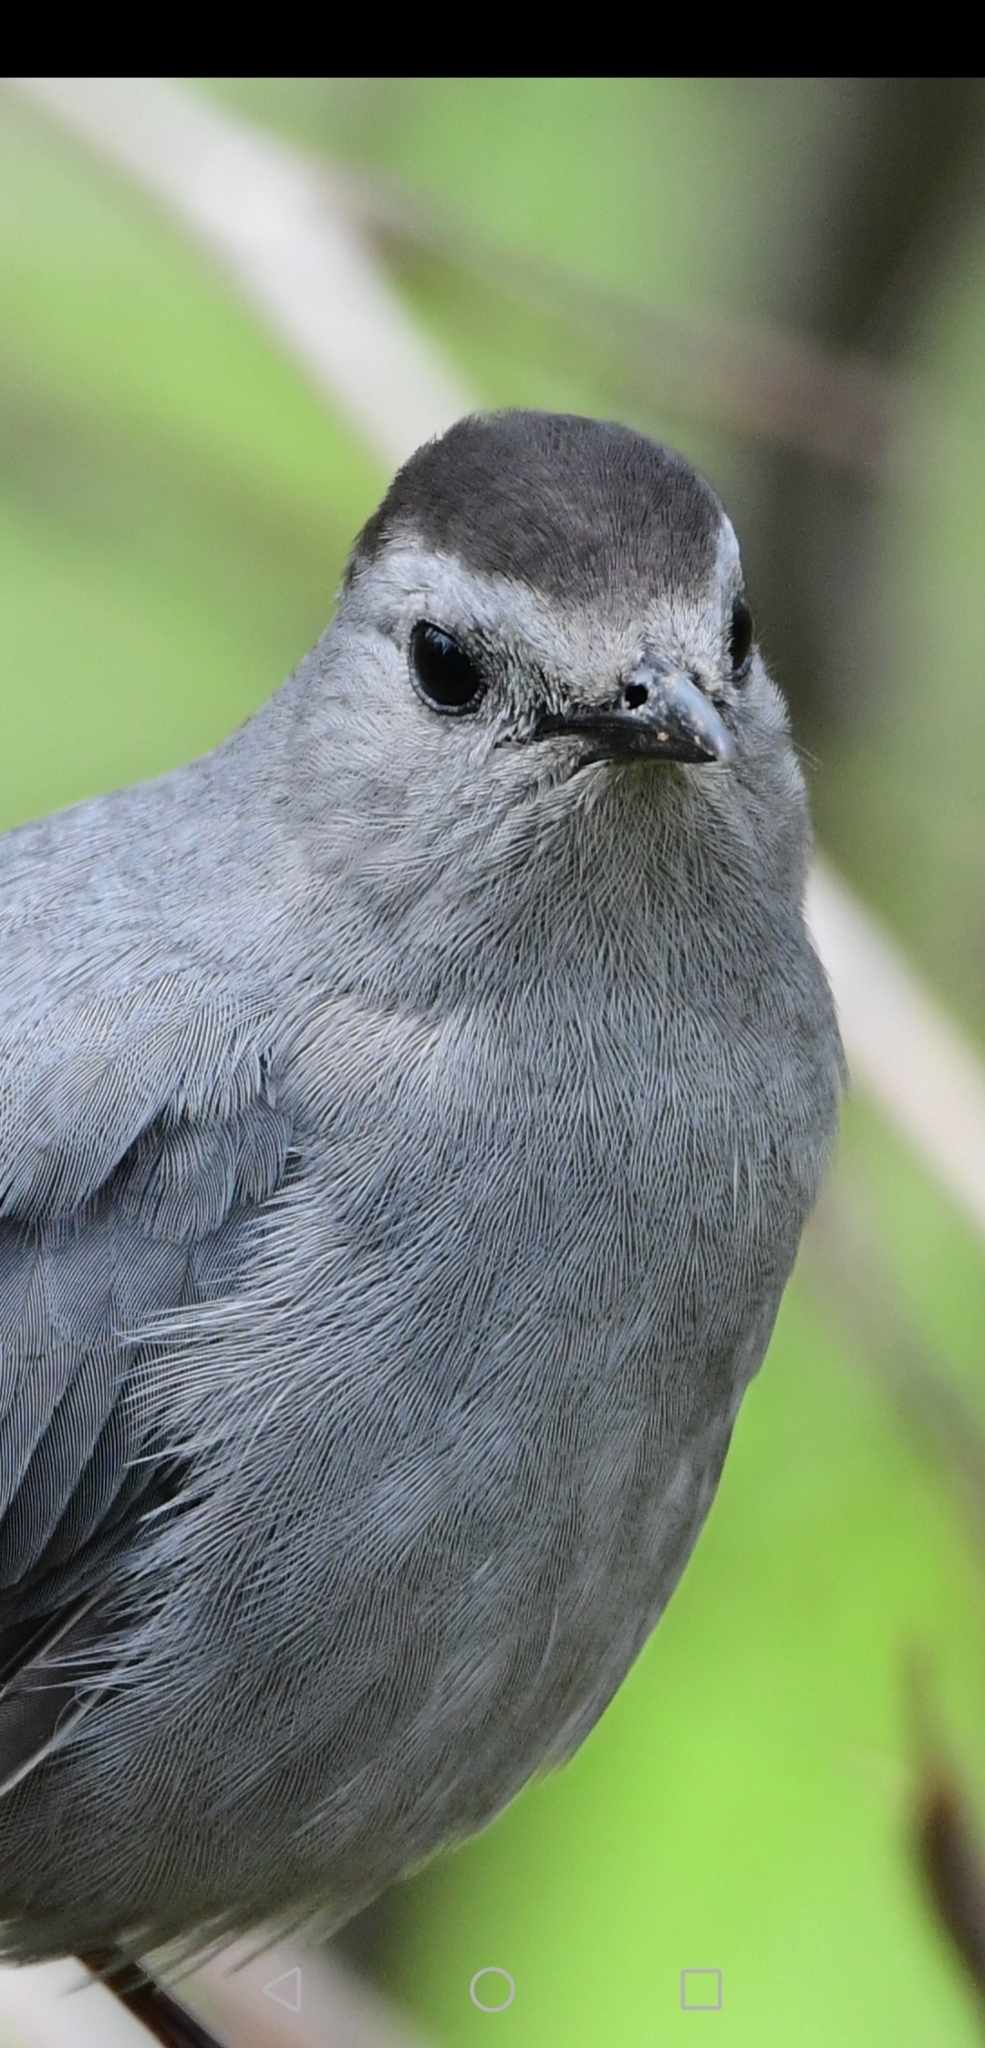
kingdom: Animalia
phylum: Chordata
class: Aves
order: Passeriformes
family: Mimidae
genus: Dumetella
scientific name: Dumetella carolinensis
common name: Gray catbird
